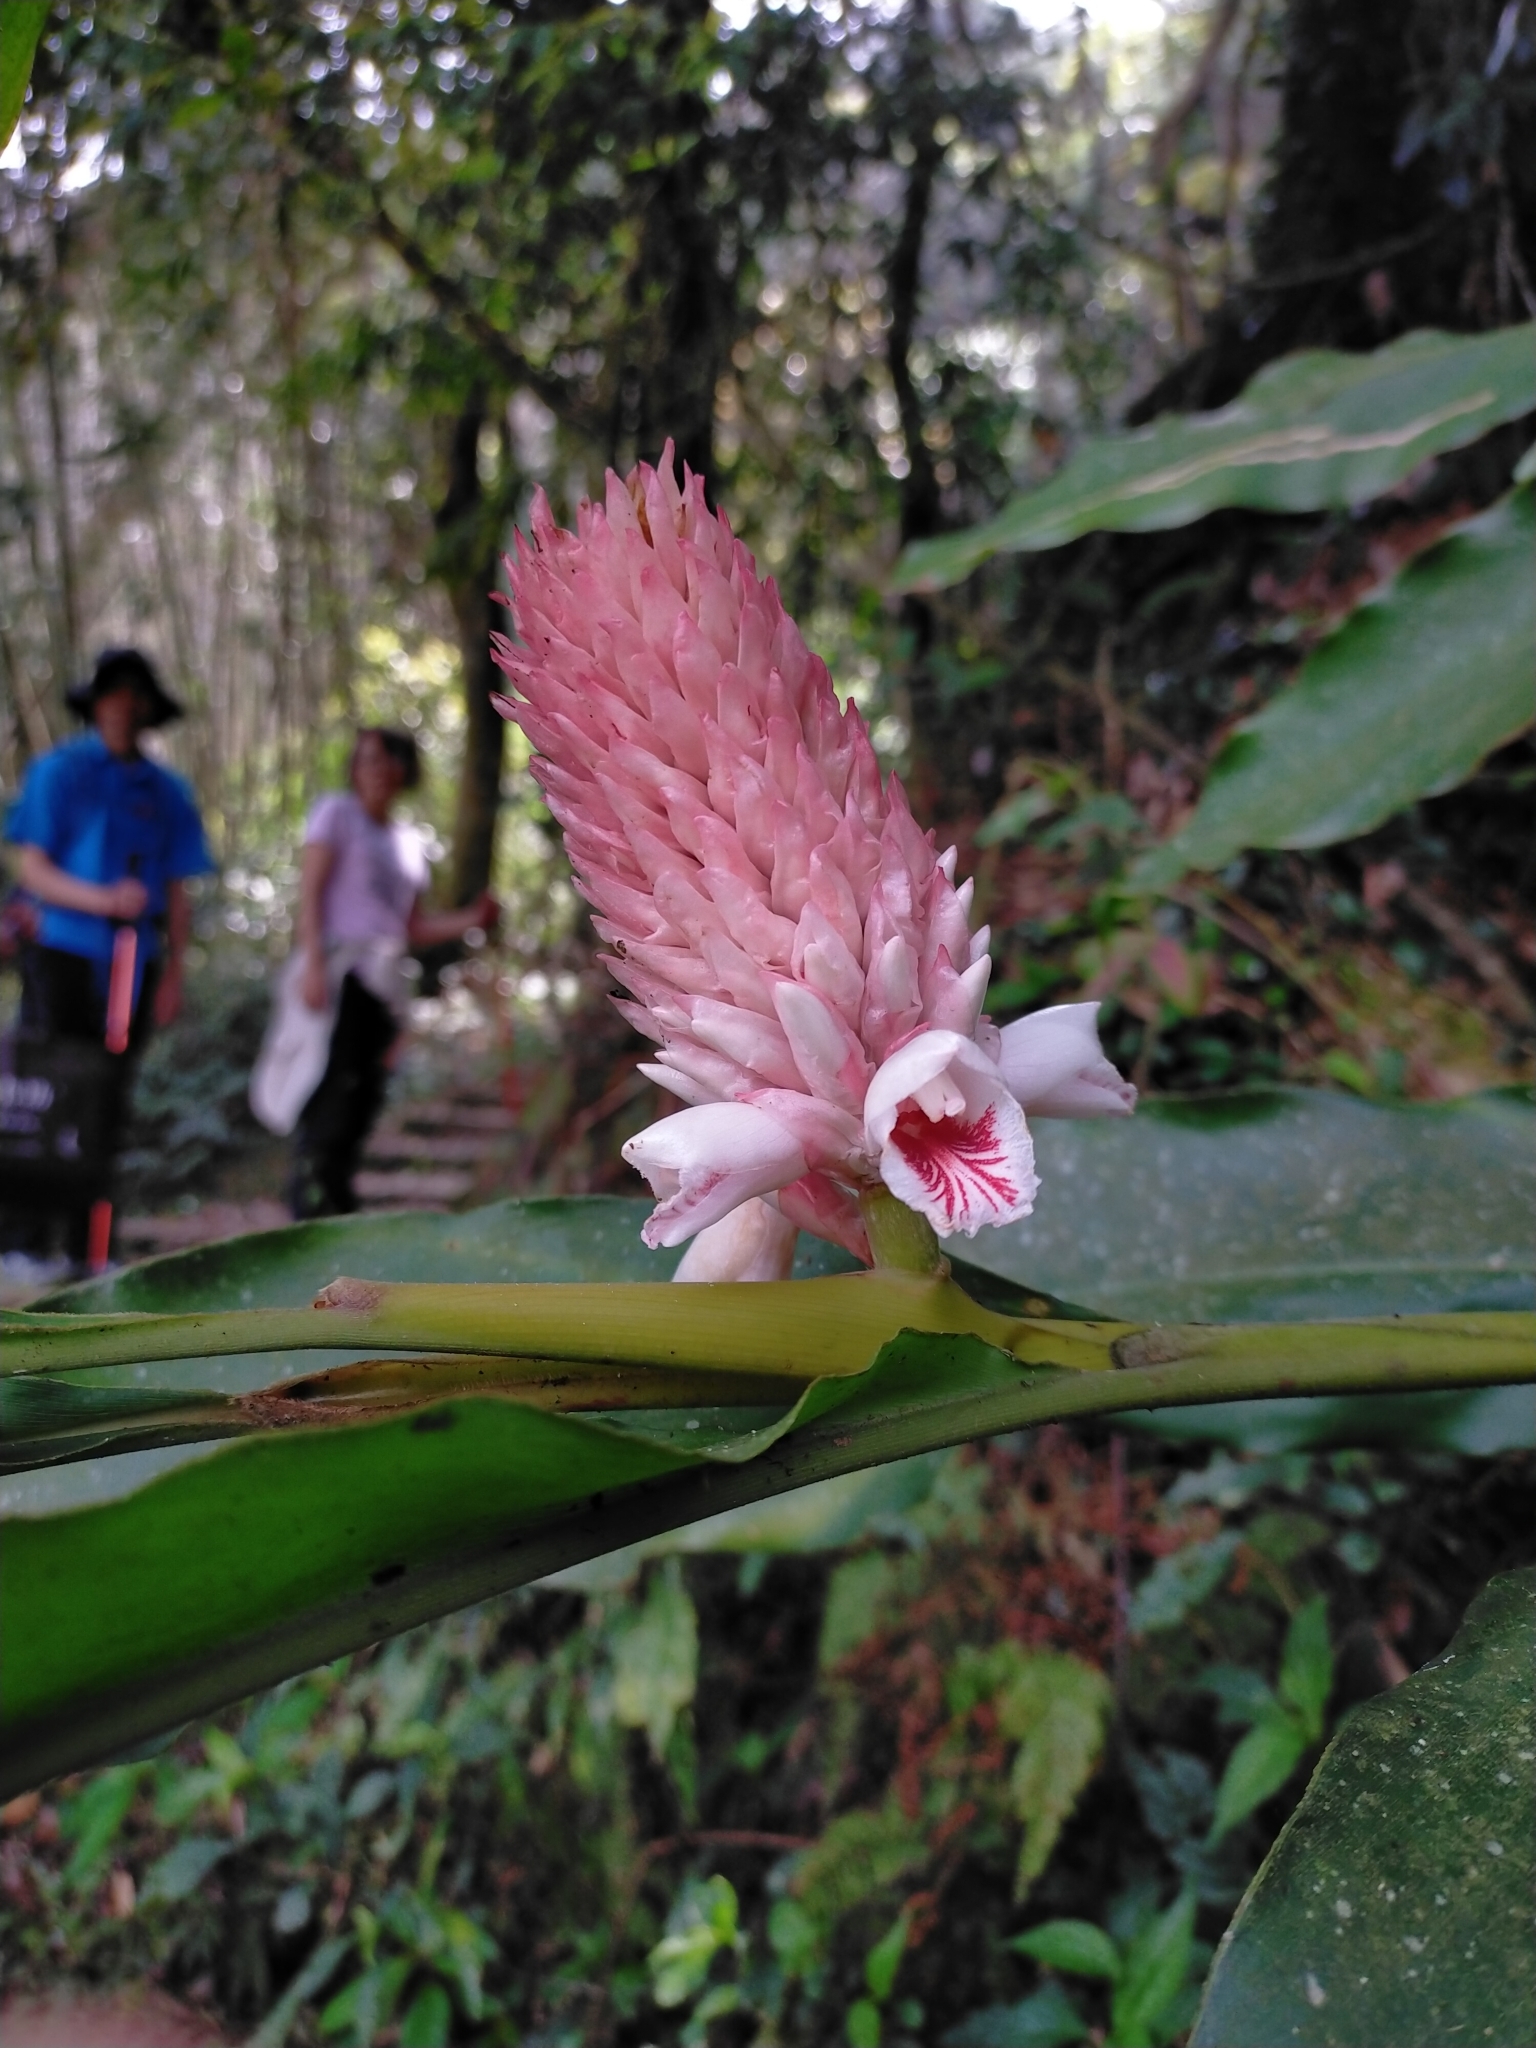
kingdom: Plantae
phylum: Tracheophyta
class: Liliopsida
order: Zingiberales
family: Zingiberaceae
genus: Alpinia
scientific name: Alpinia sessiliflora
